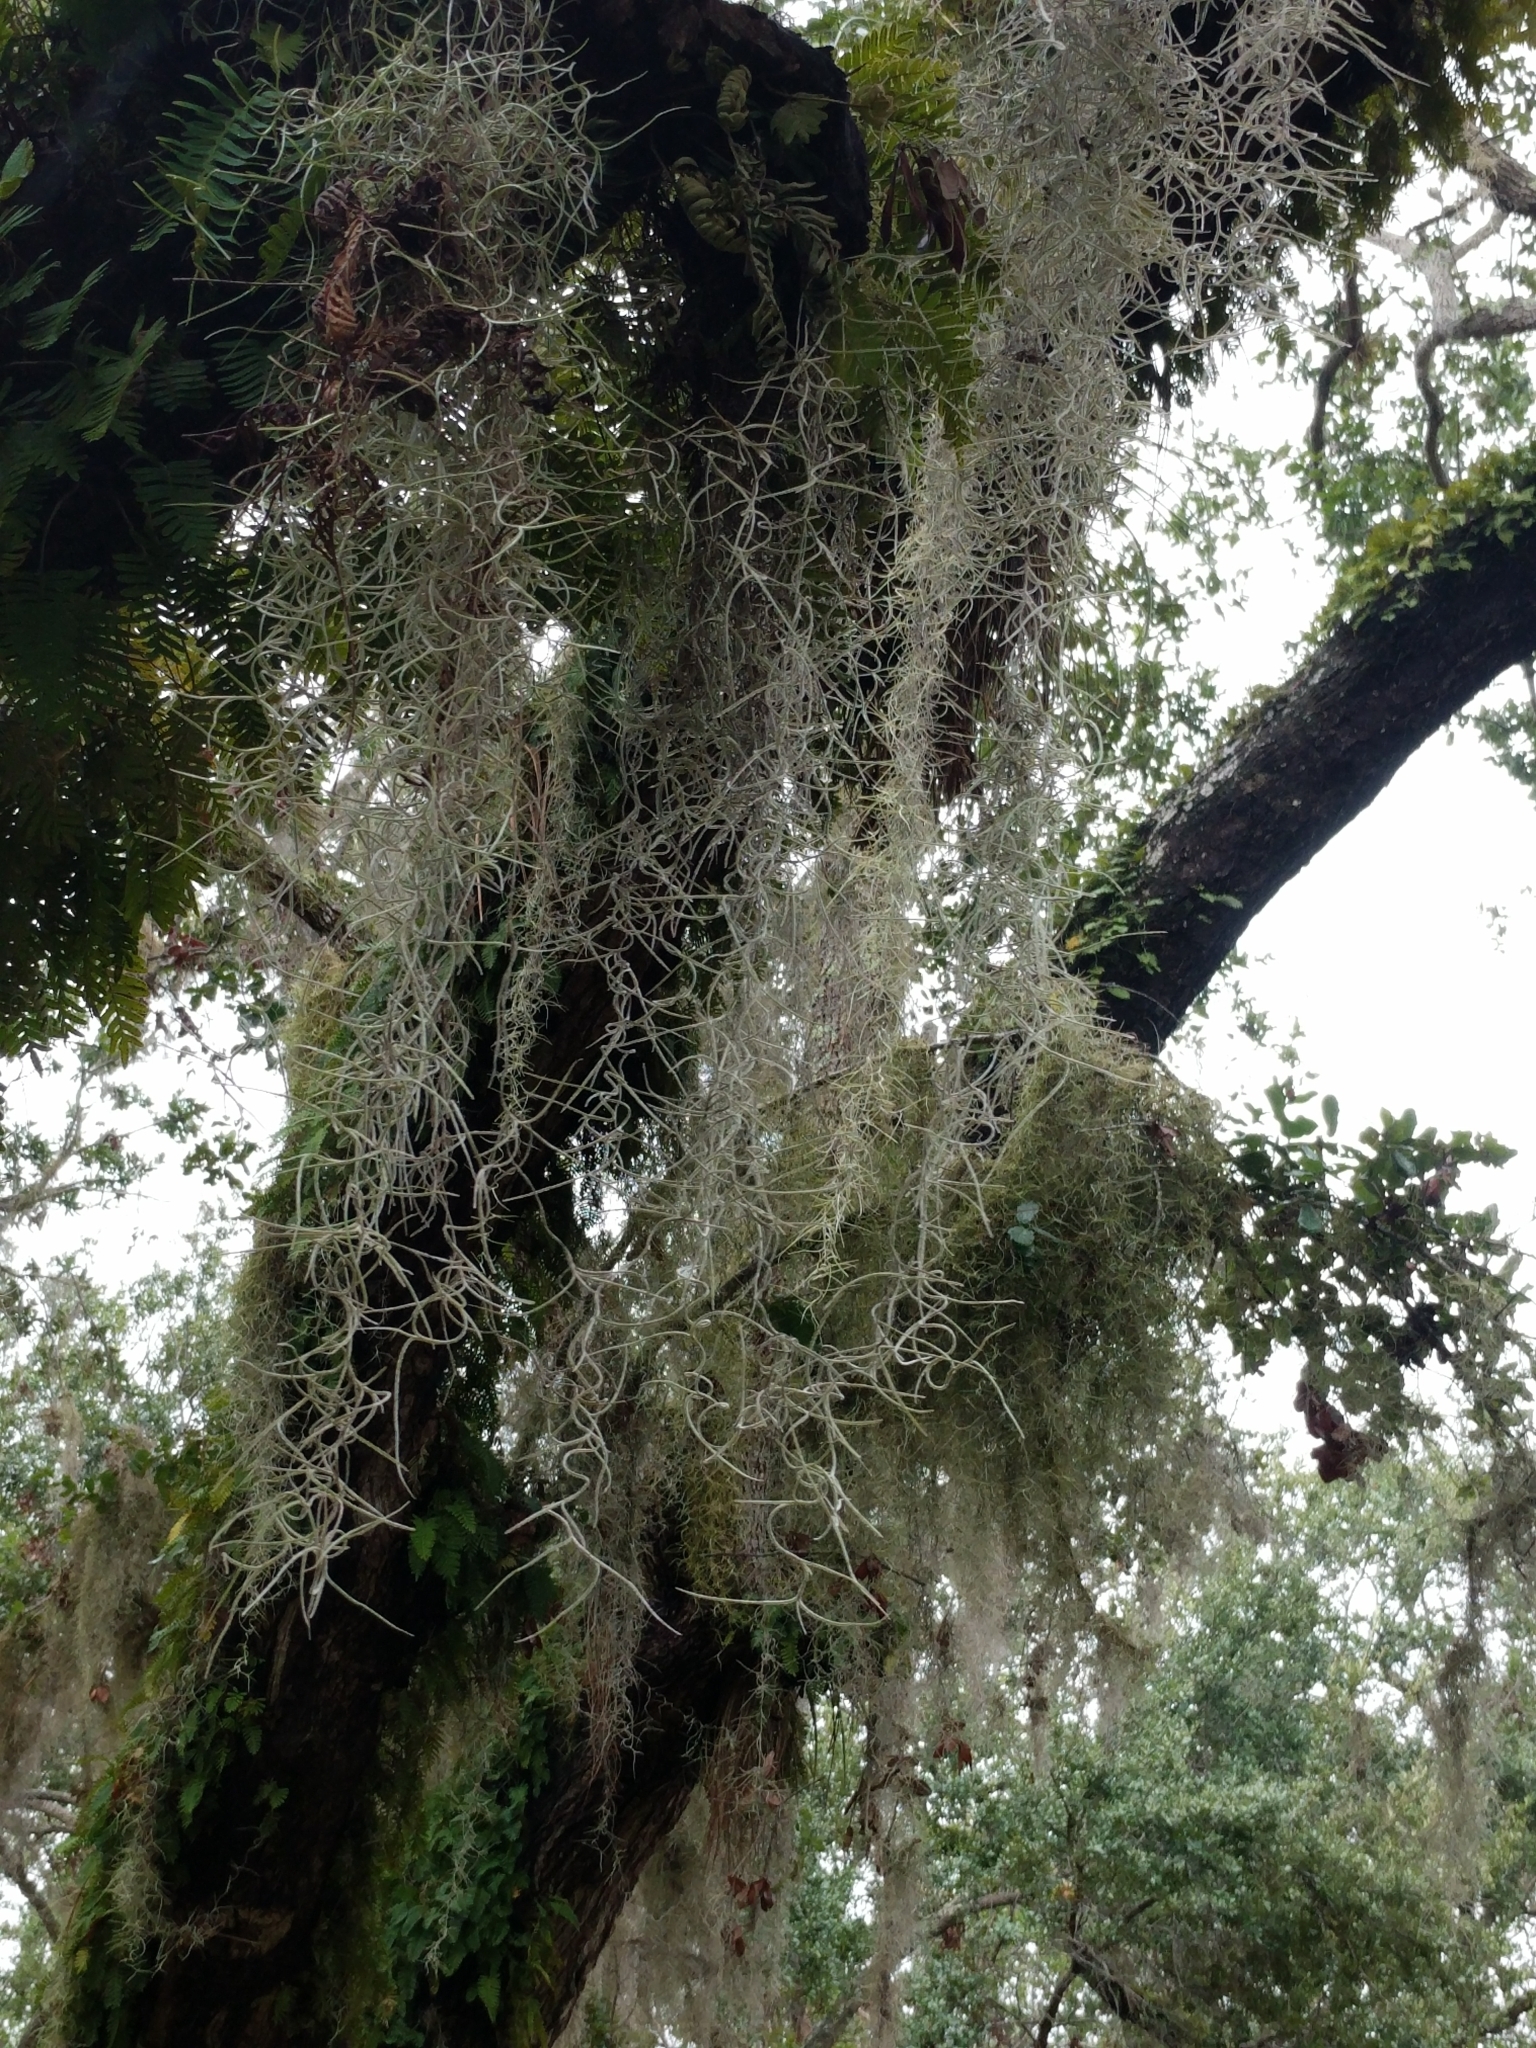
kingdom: Plantae
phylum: Tracheophyta
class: Liliopsida
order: Poales
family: Bromeliaceae
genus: Tillandsia
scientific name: Tillandsia usneoides
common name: Spanish moss
